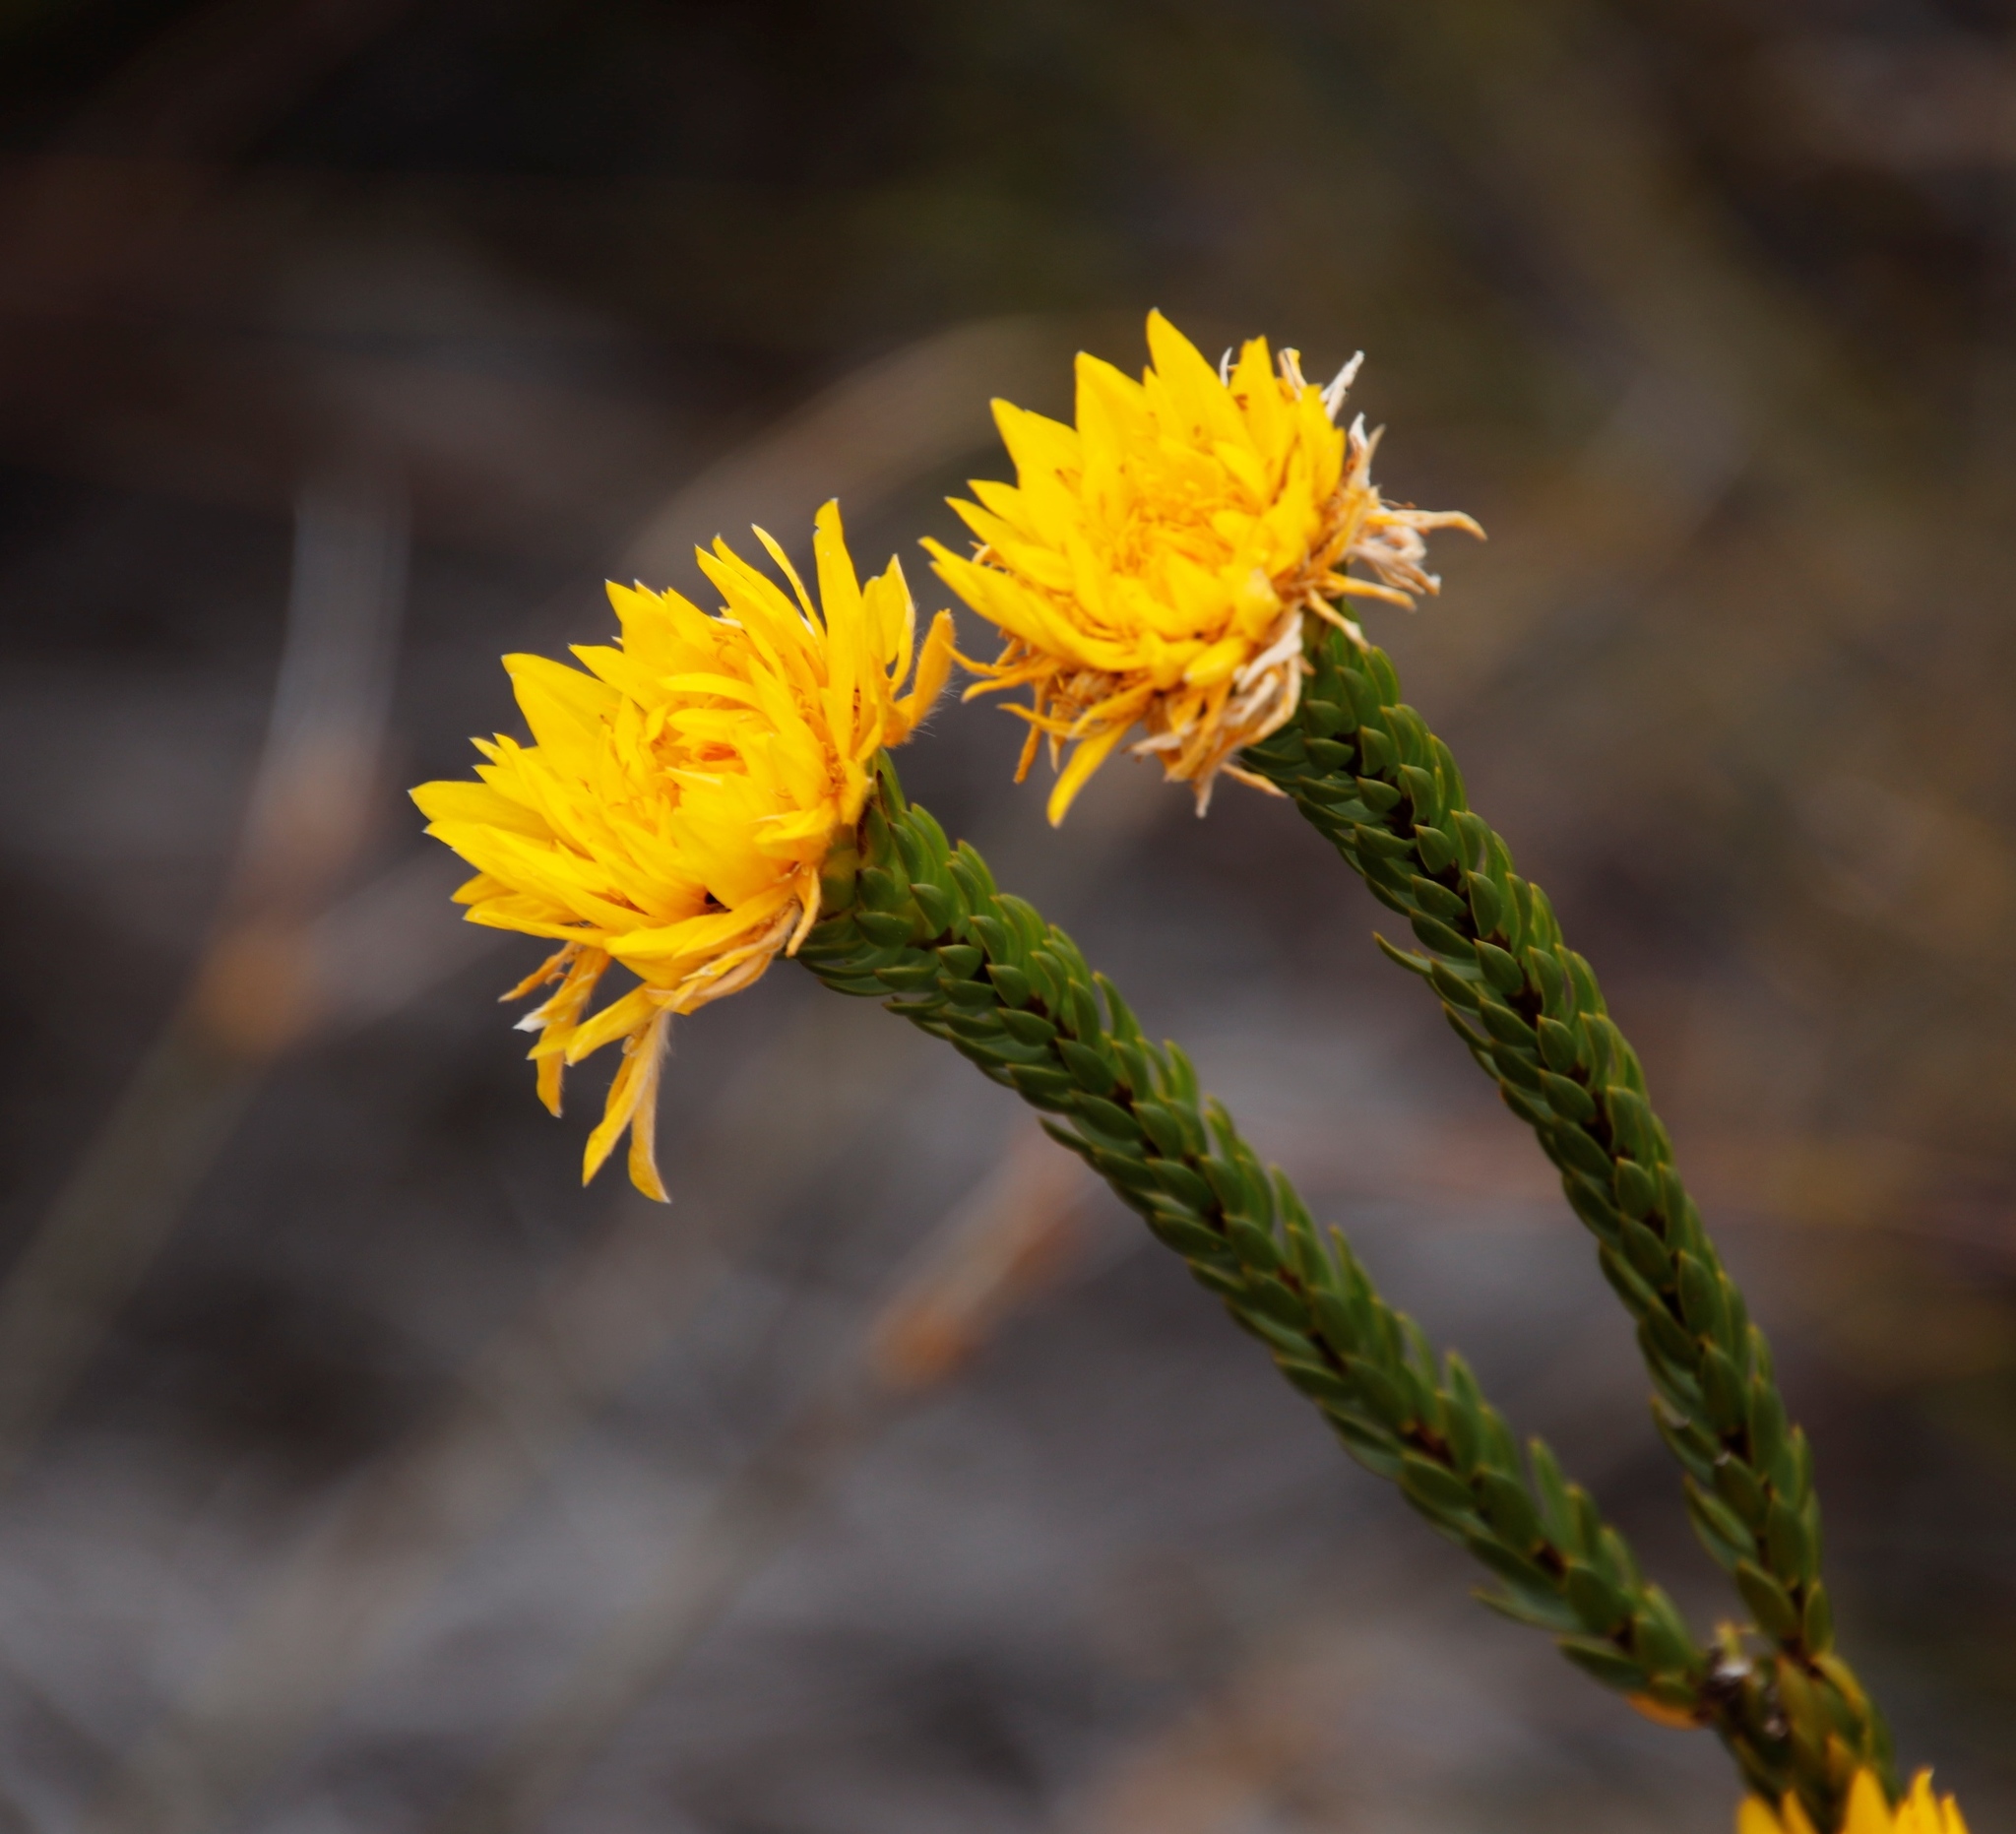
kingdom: Plantae
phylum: Tracheophyta
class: Magnoliopsida
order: Malvales
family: Thymelaeaceae
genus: Lachnaea
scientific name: Lachnaea aurea
